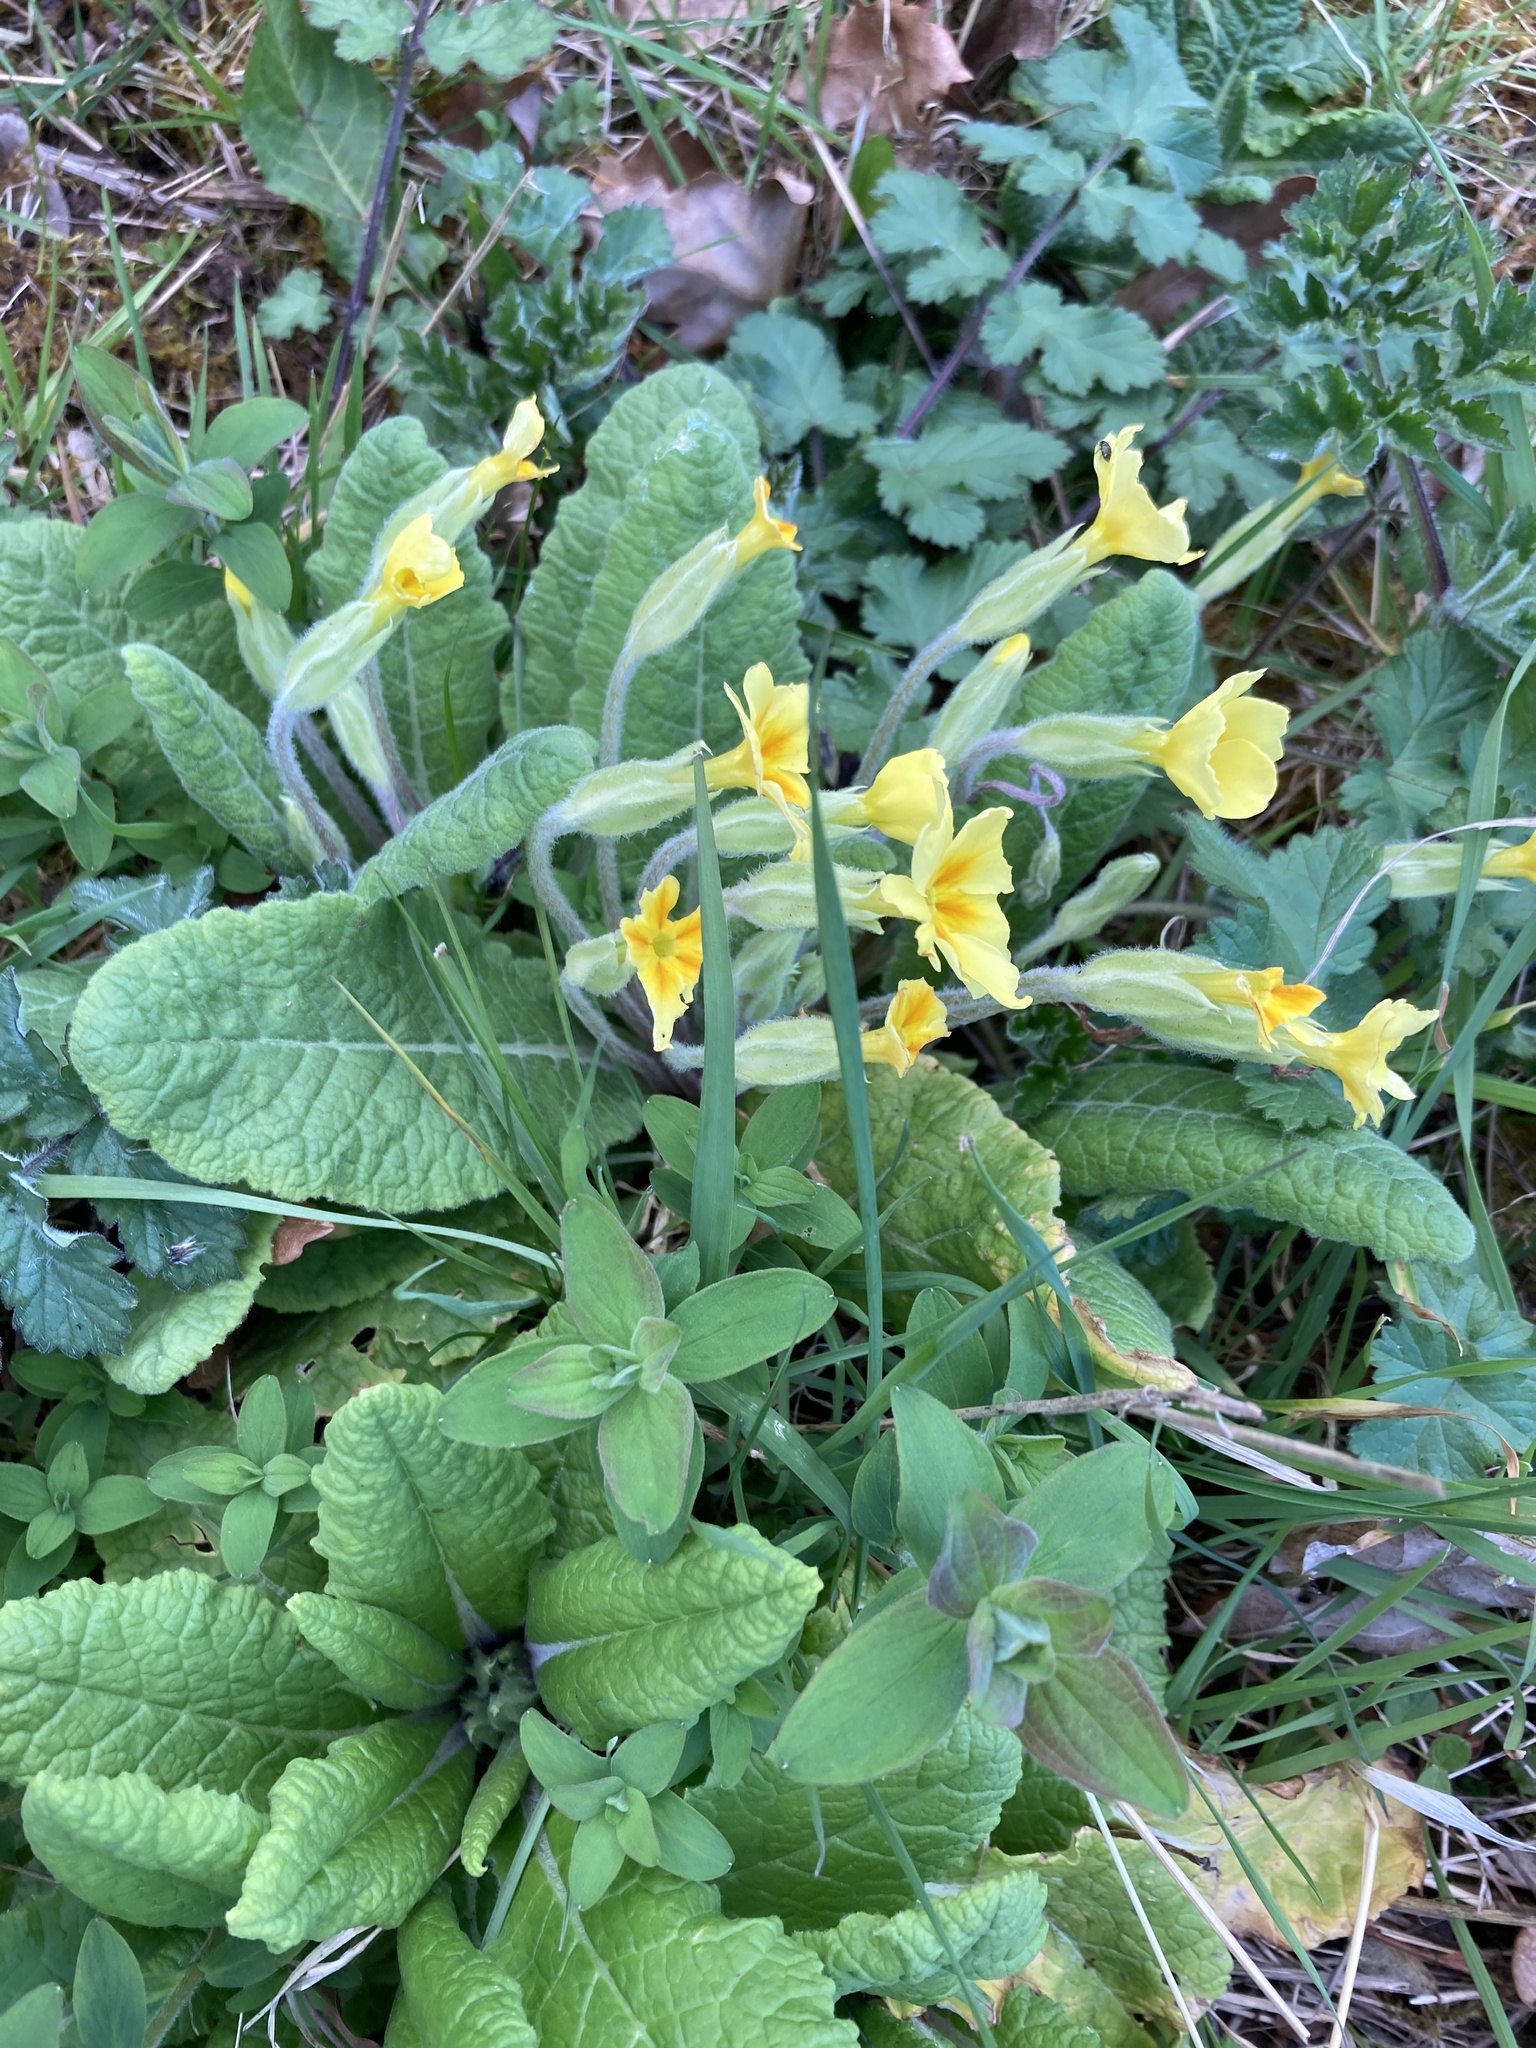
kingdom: Plantae
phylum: Tracheophyta
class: Magnoliopsida
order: Ericales
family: Primulaceae
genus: Primula
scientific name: Primula vulgaris
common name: Primrose
